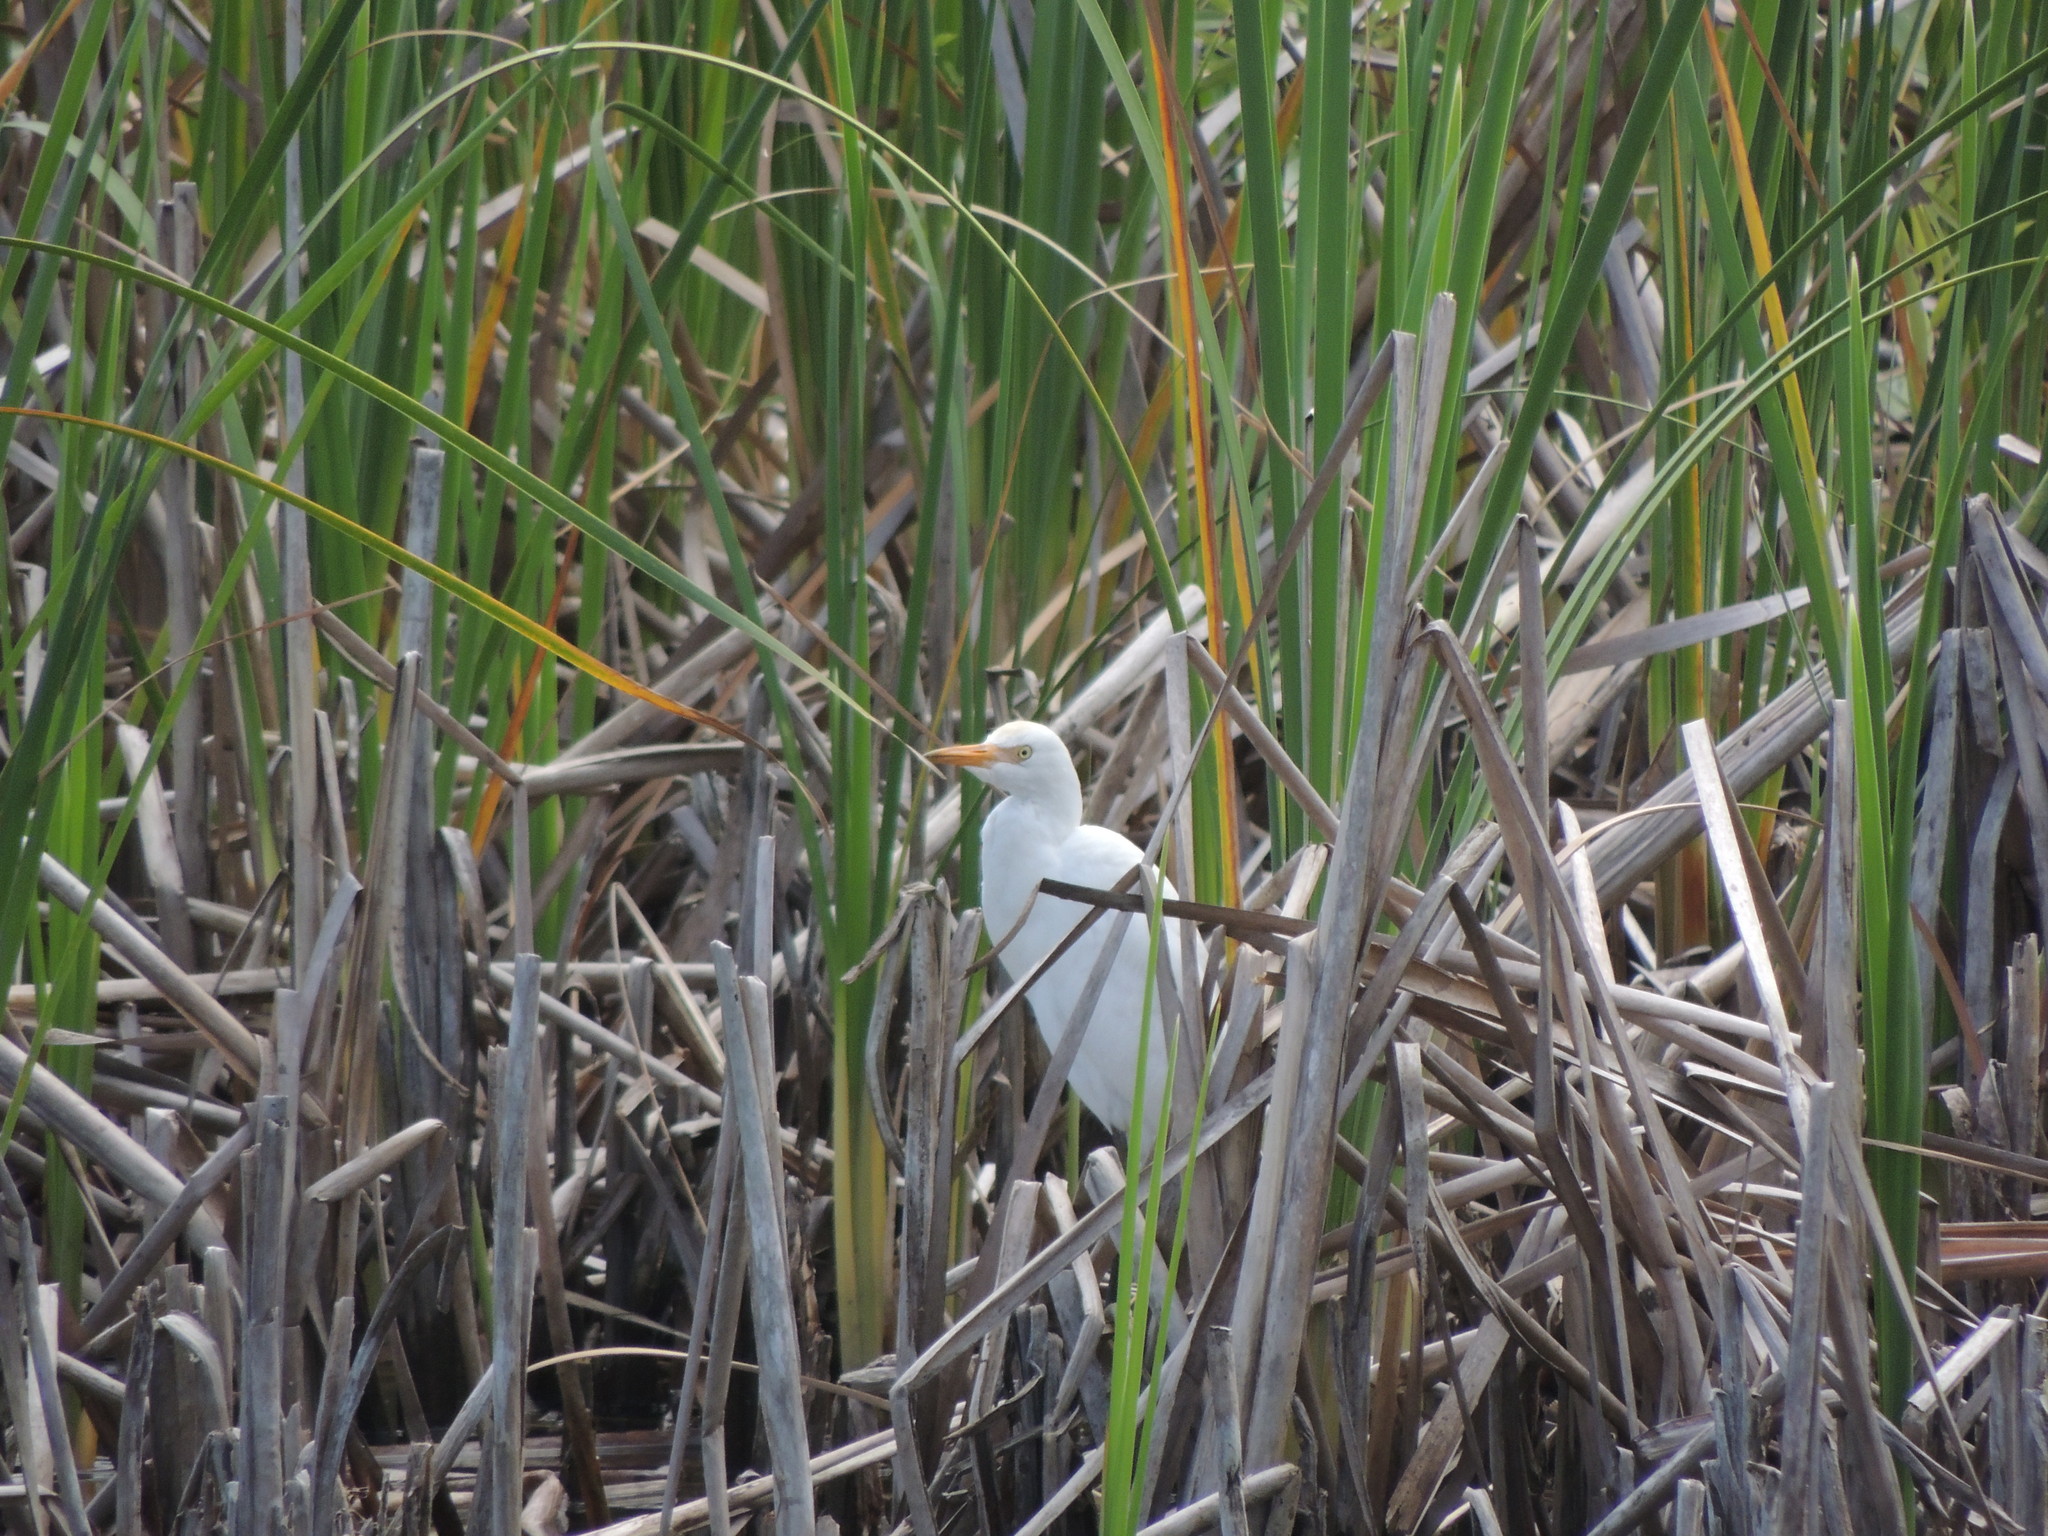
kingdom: Animalia
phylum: Chordata
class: Aves
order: Pelecaniformes
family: Ardeidae
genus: Bubulcus
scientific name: Bubulcus ibis
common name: Cattle egret
